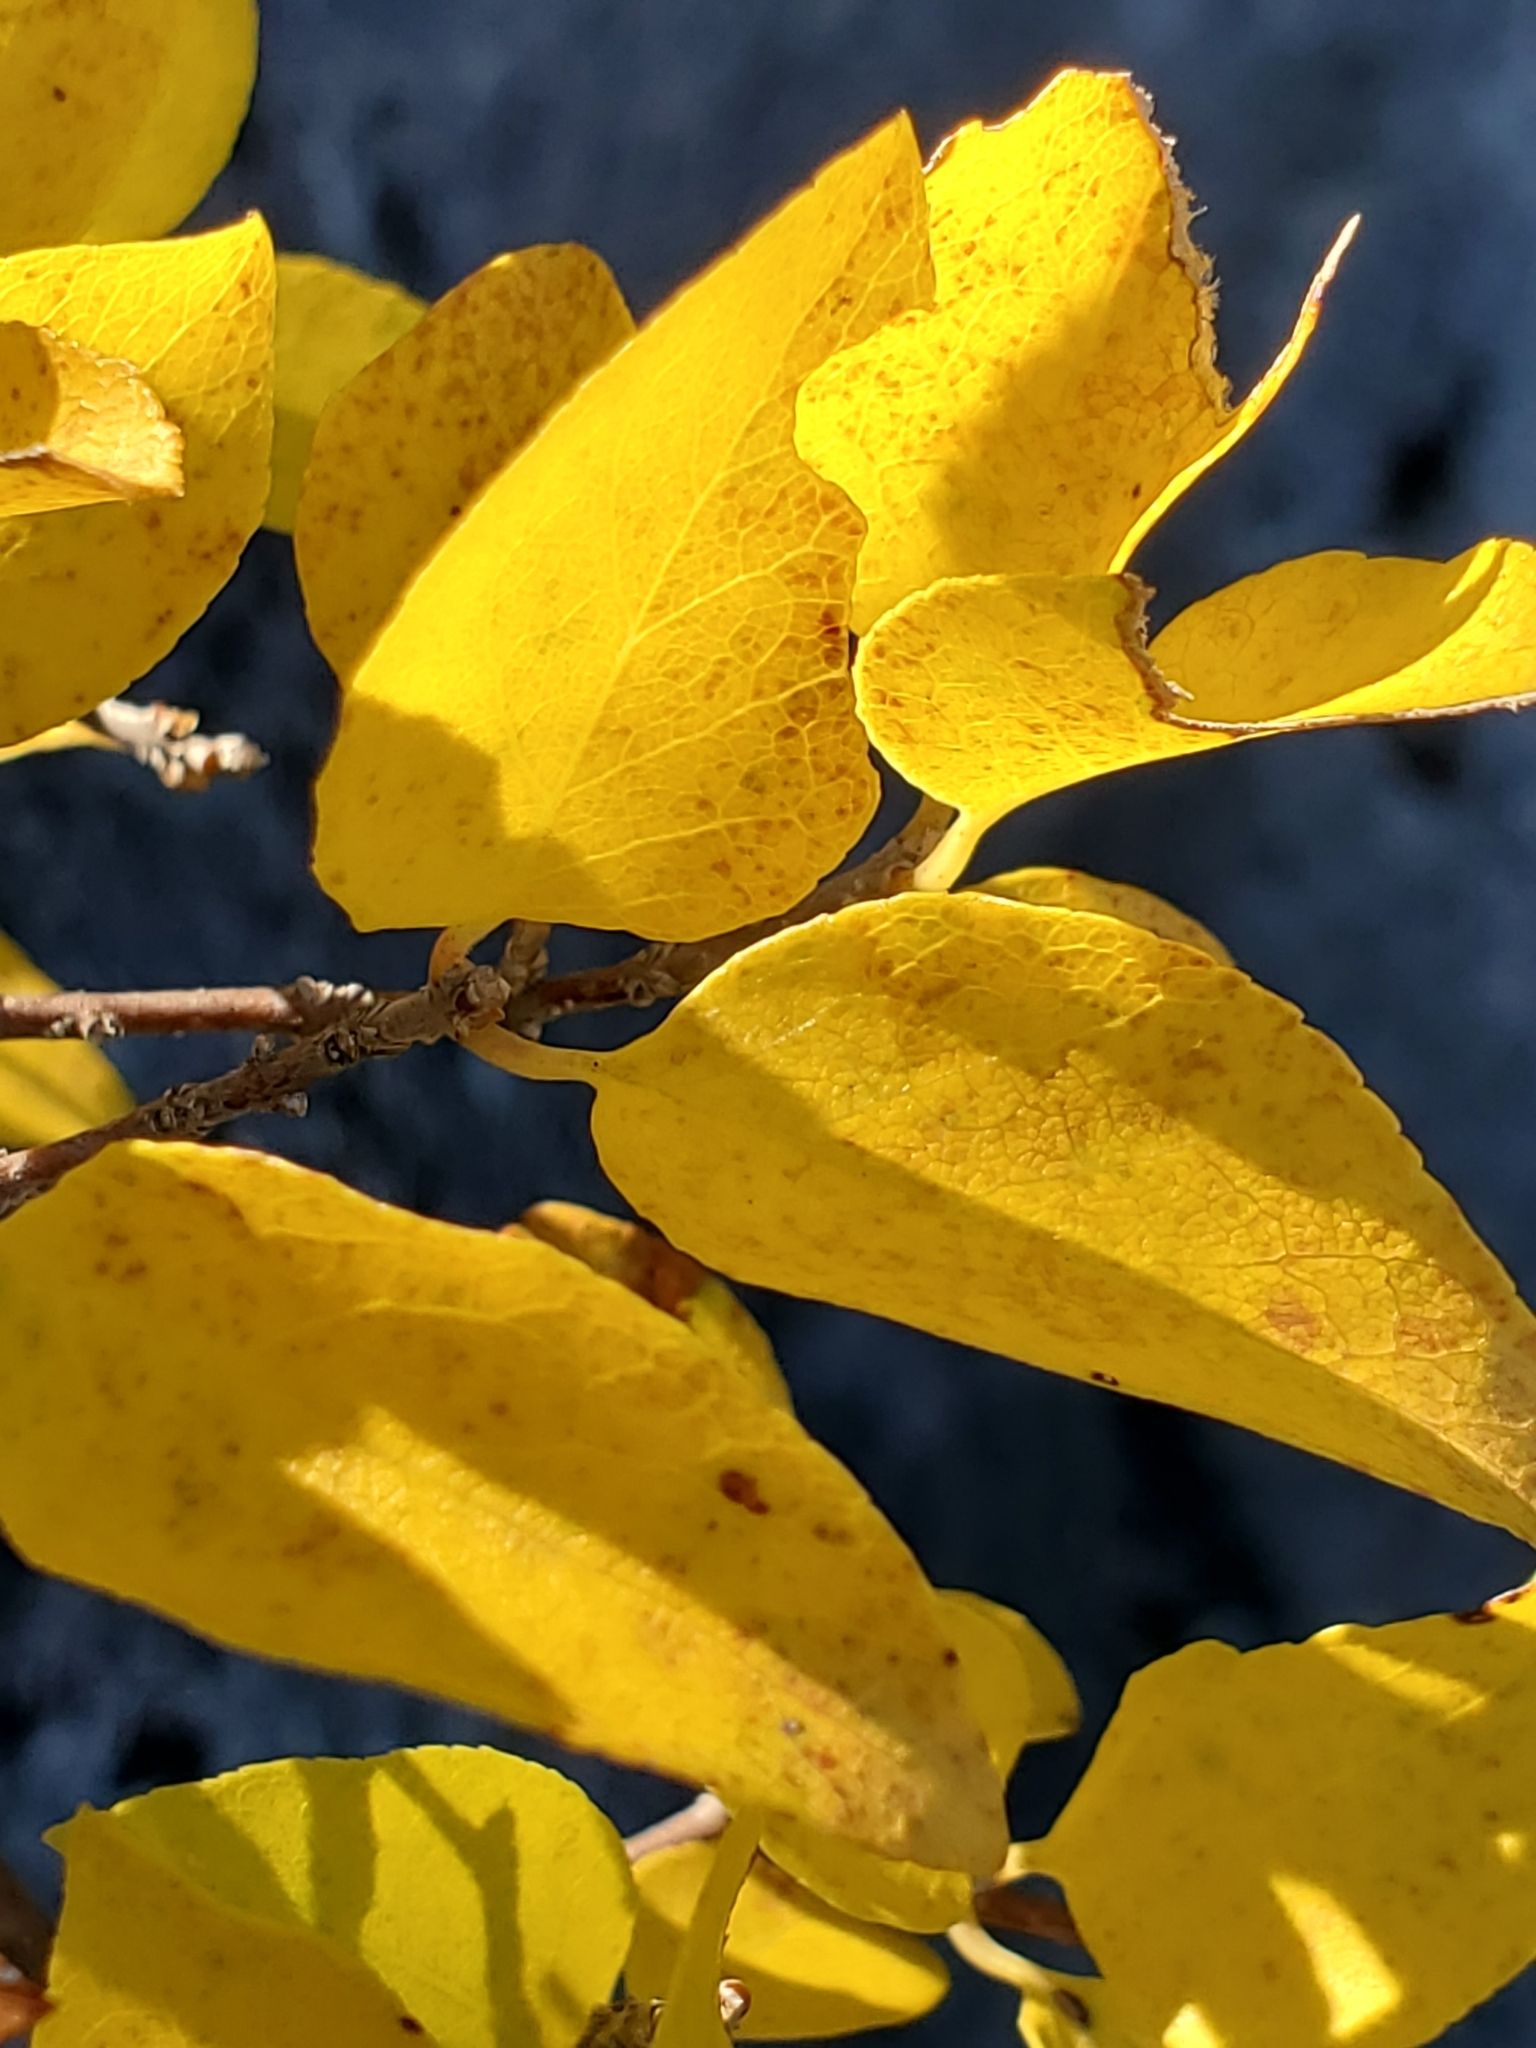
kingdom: Plantae
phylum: Tracheophyta
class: Magnoliopsida
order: Lamiales
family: Oleaceae
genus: Forestiera
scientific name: Forestiera reticulata
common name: Netleaf swamp-privet
